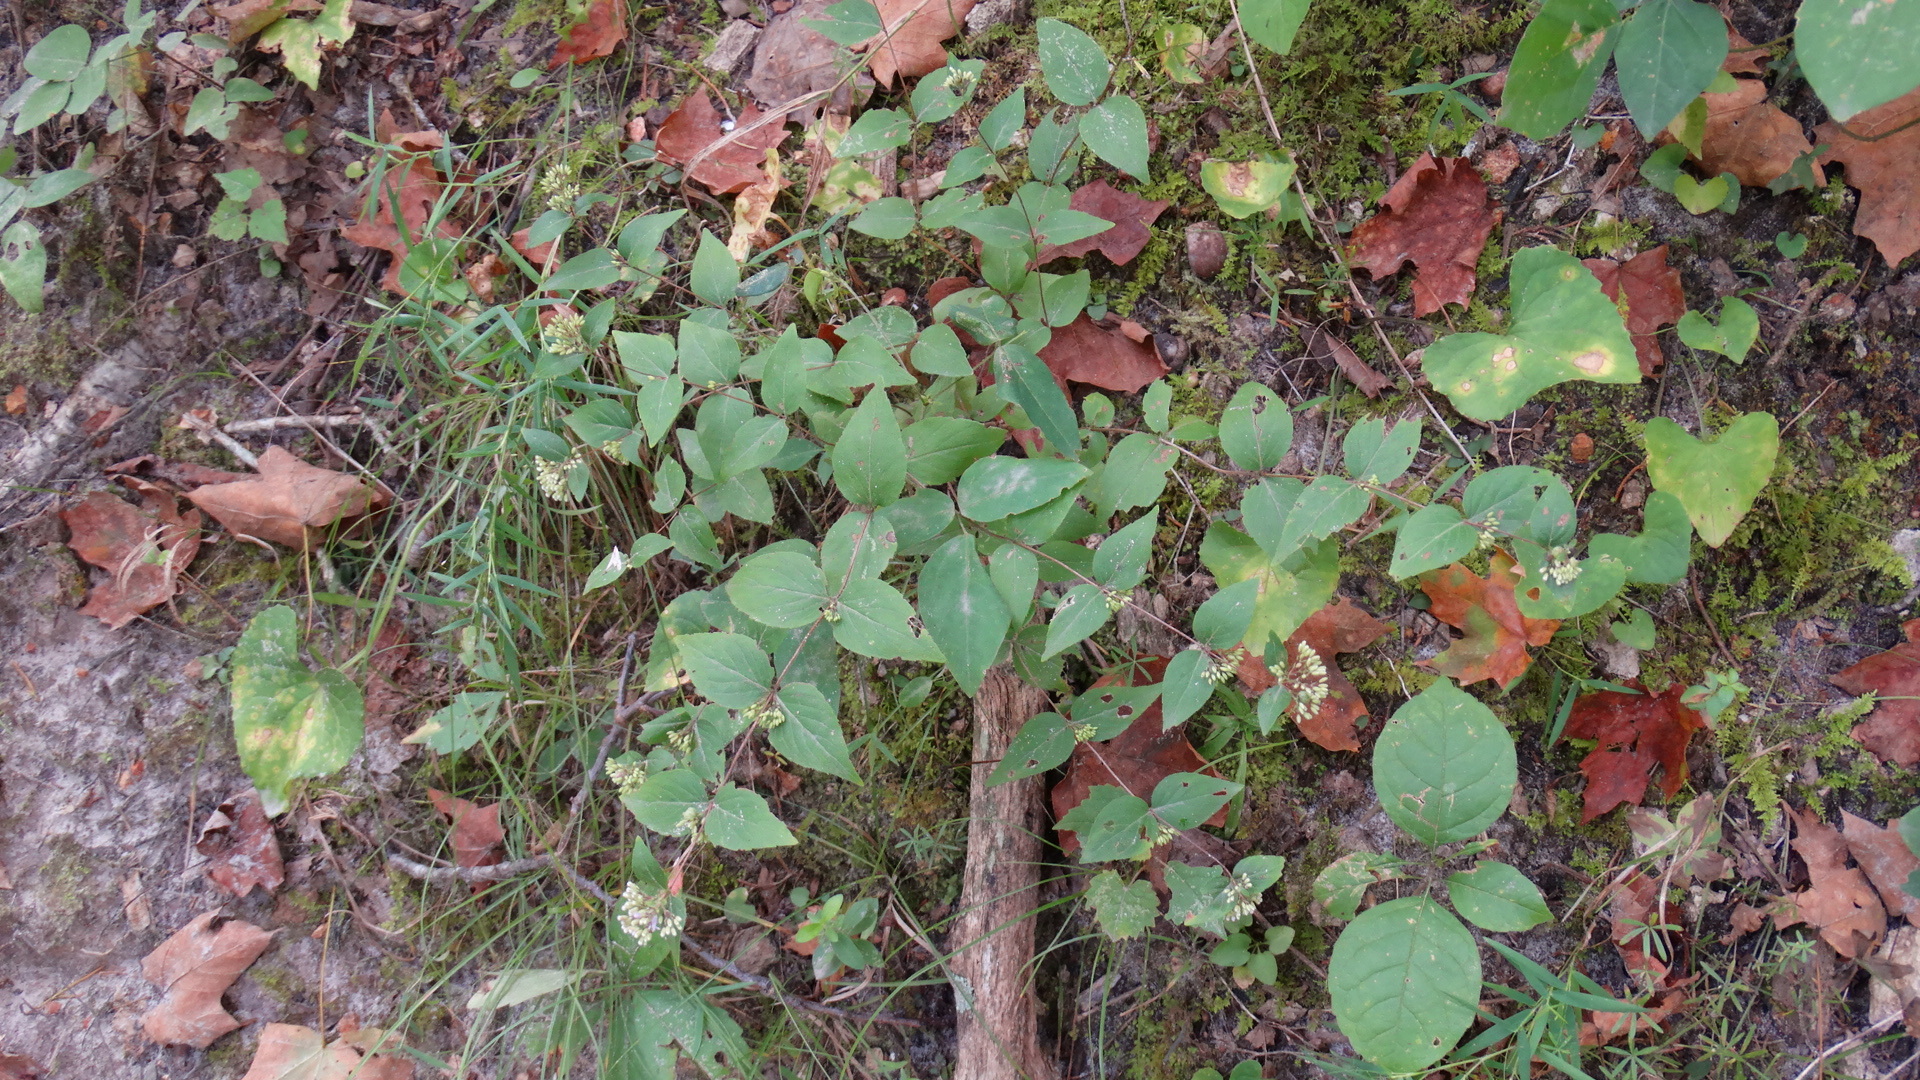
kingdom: Plantae
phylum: Tracheophyta
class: Magnoliopsida
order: Lamiales
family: Lamiaceae
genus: Cunila
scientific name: Cunila origanoides
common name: American dittany
